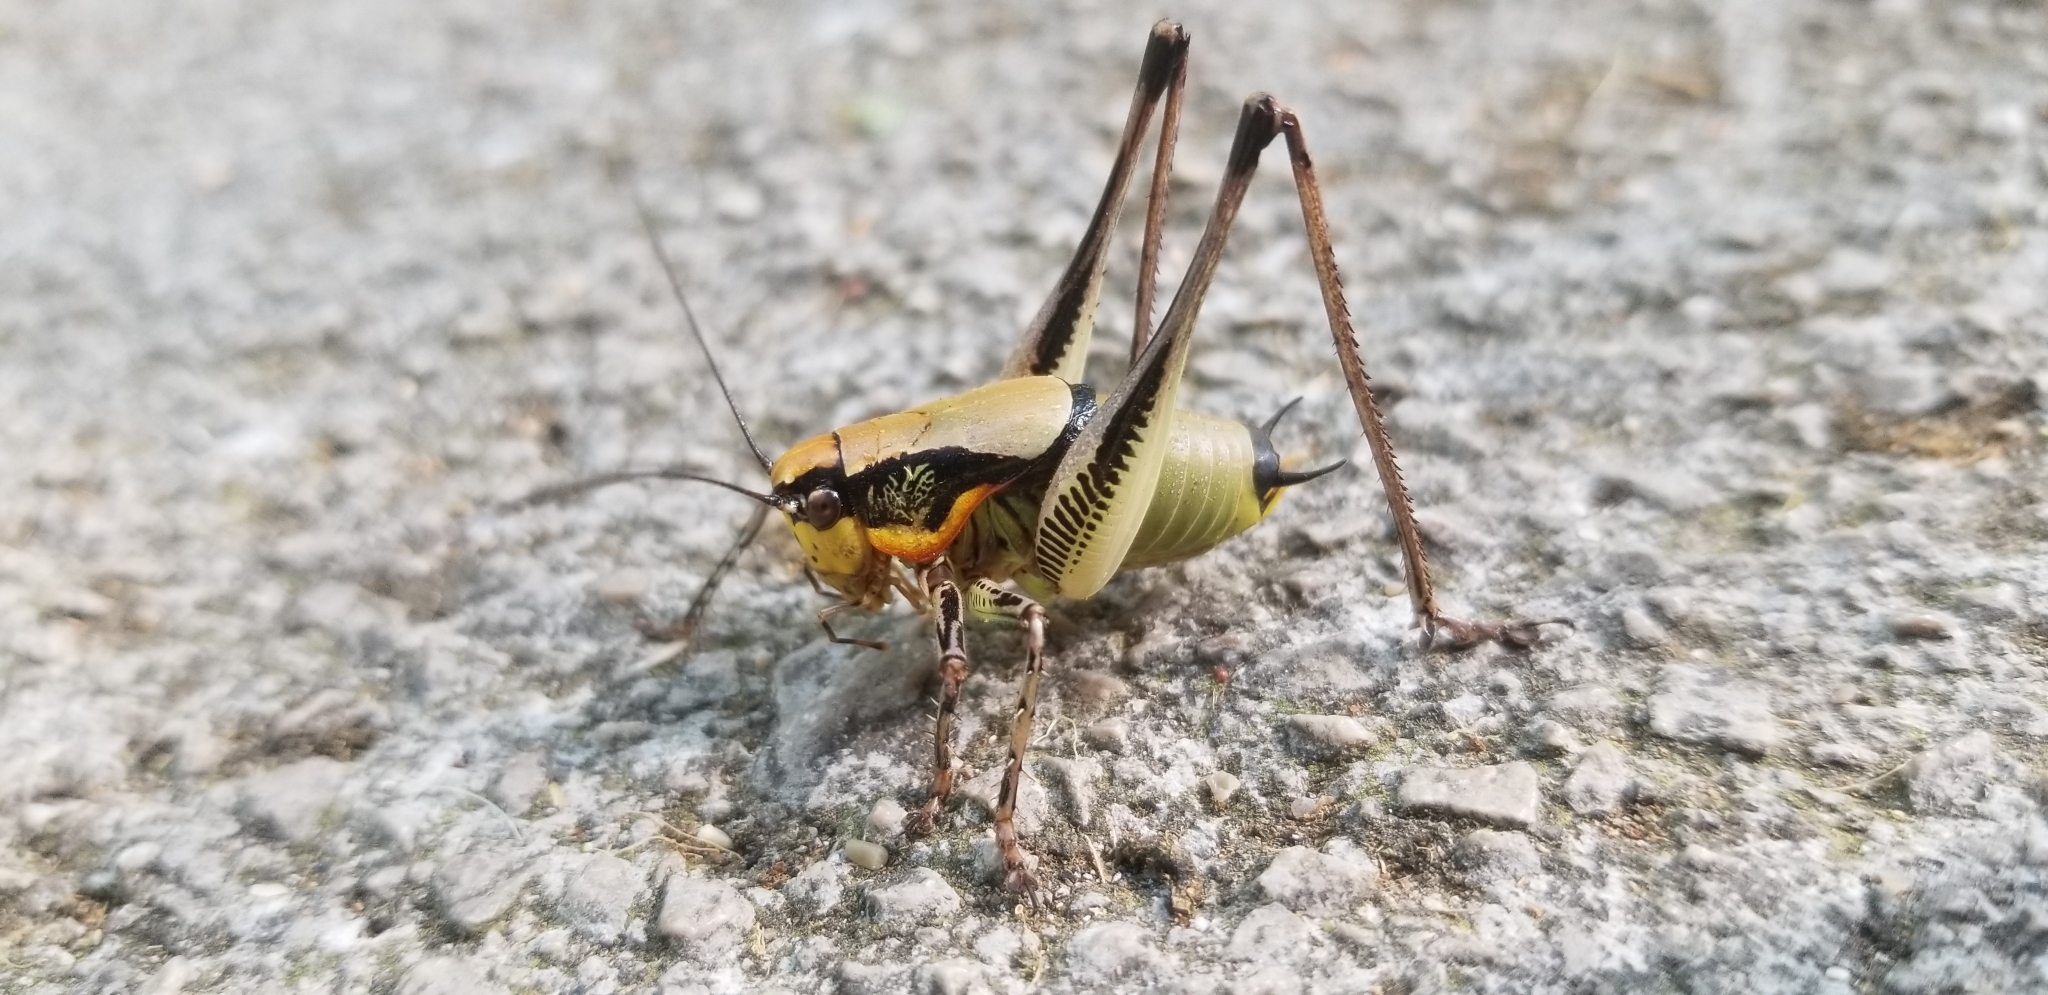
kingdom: Animalia
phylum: Arthropoda
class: Insecta
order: Orthoptera
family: Tettigoniidae
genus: Eupholidoptera
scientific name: Eupholidoptera schmidti
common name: Schmidt's marbled bush-cricket
